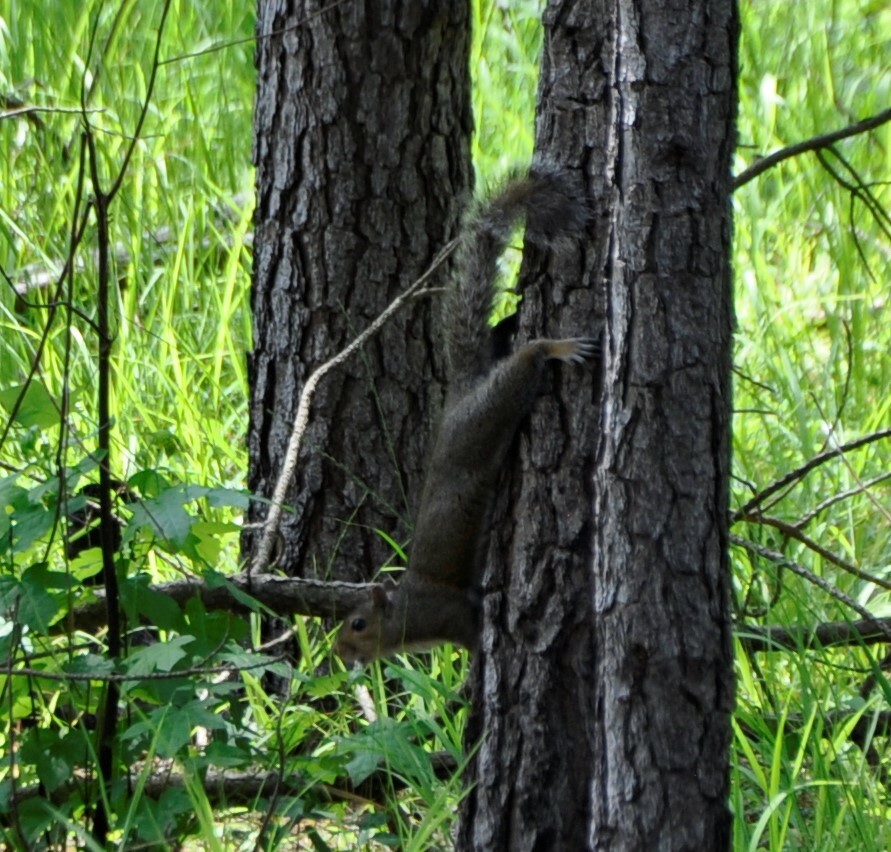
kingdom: Animalia
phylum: Chordata
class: Mammalia
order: Rodentia
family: Sciuridae
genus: Sciurus
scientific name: Sciurus carolinensis
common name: Eastern gray squirrel
